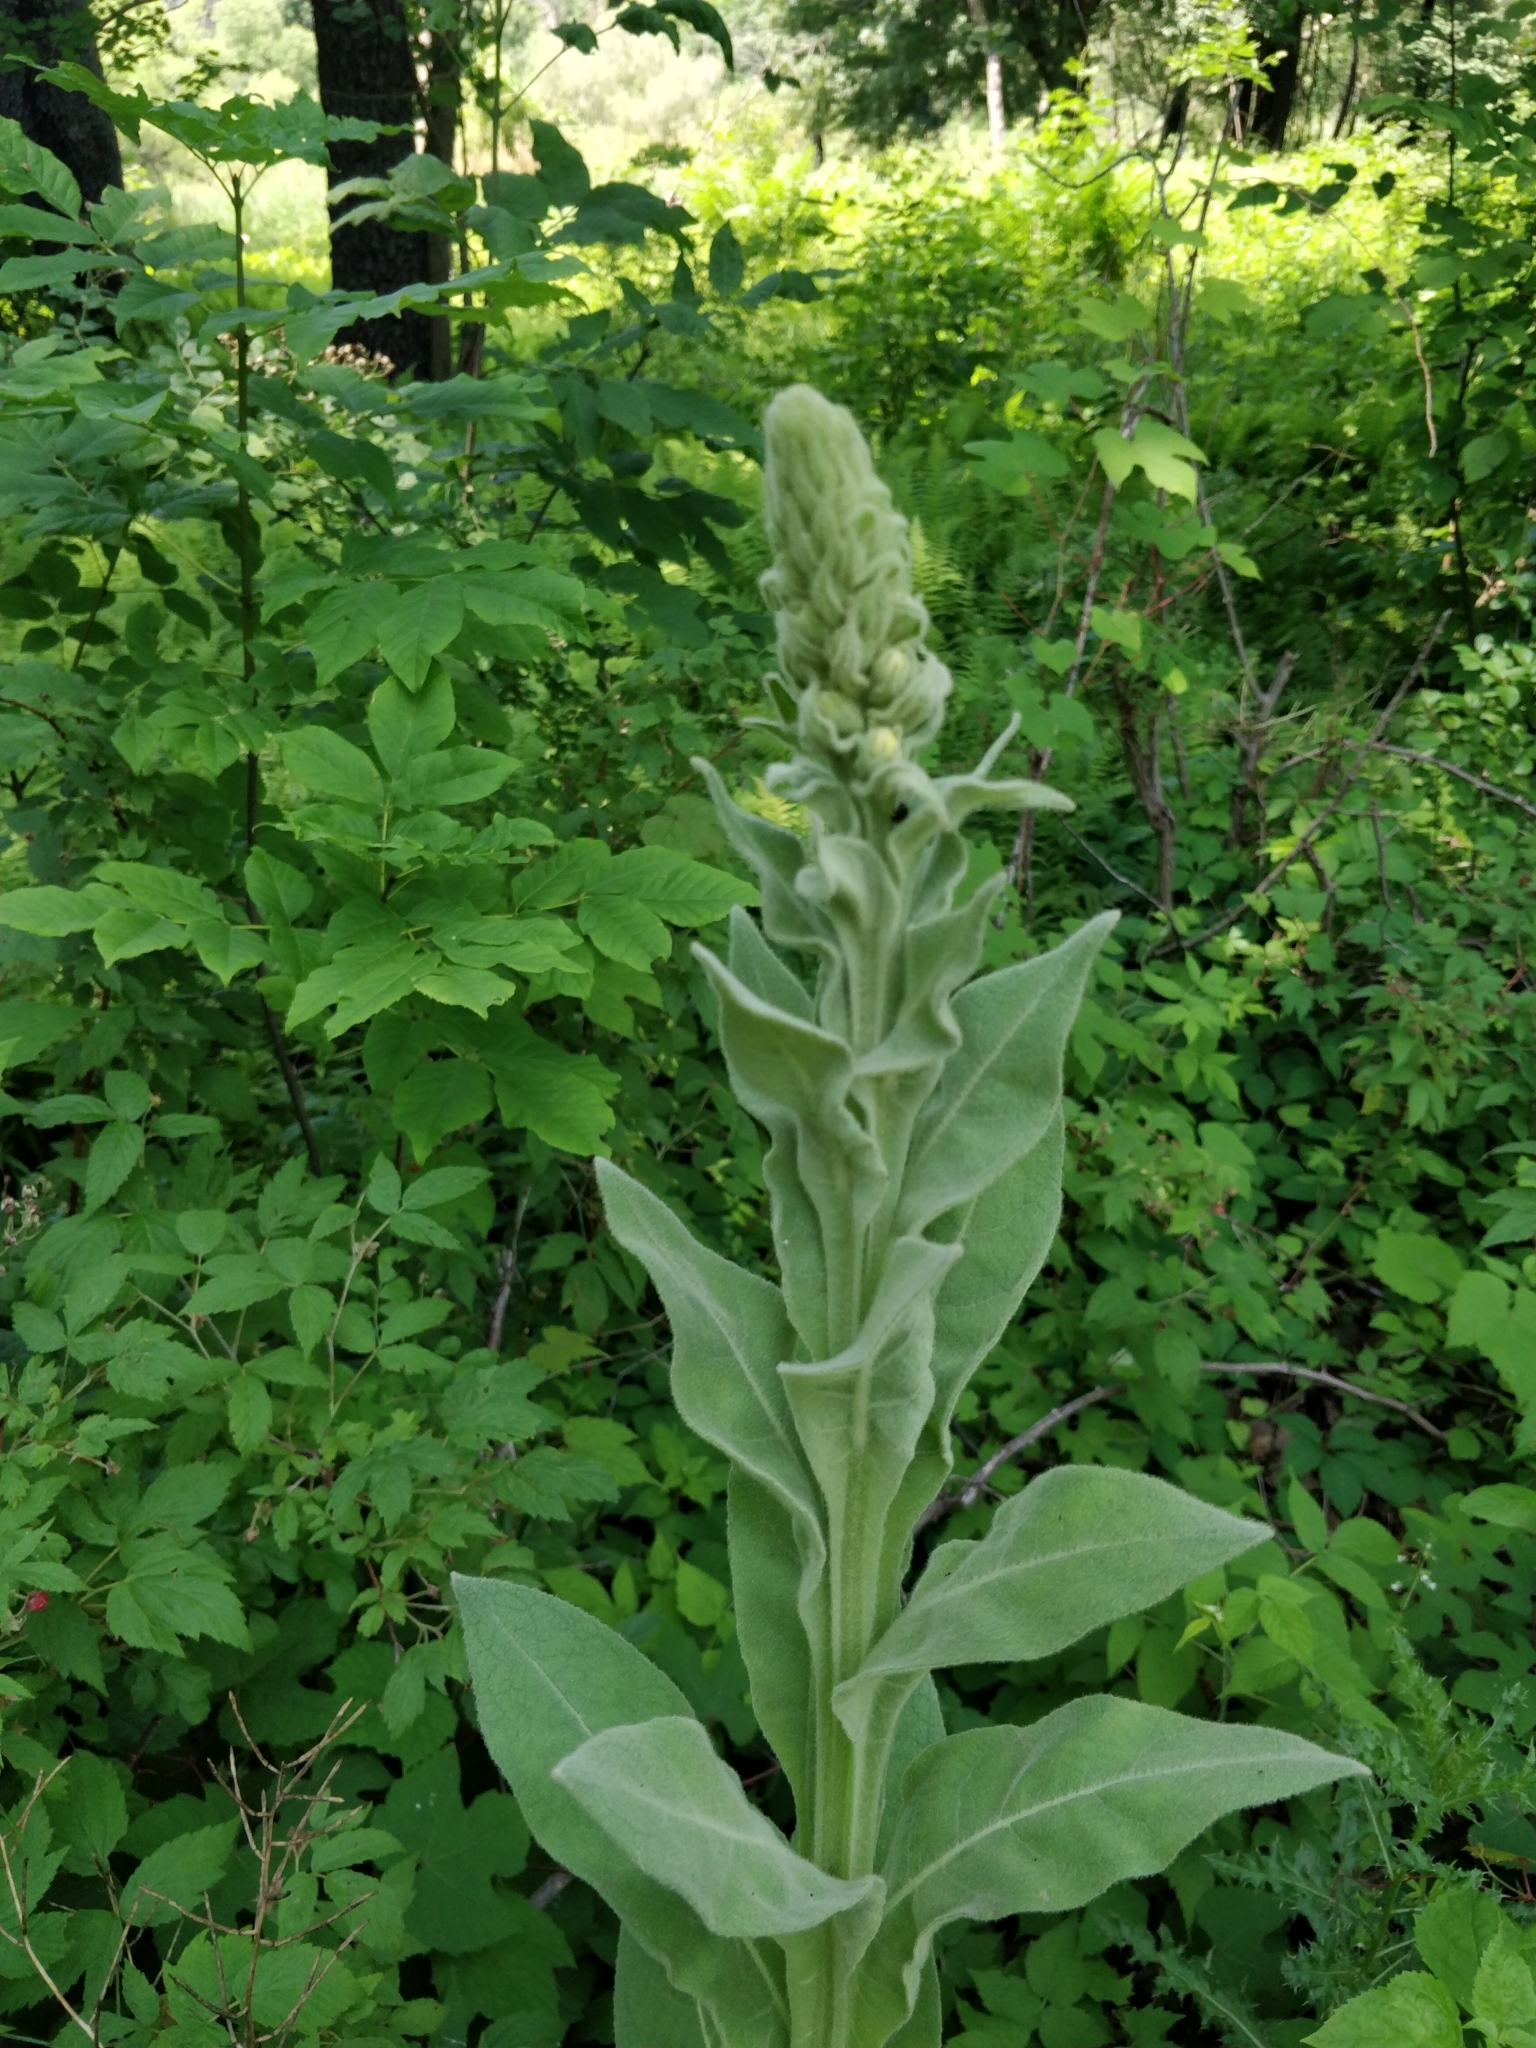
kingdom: Plantae
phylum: Tracheophyta
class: Magnoliopsida
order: Lamiales
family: Scrophulariaceae
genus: Verbascum
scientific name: Verbascum thapsus
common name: Common mullein
